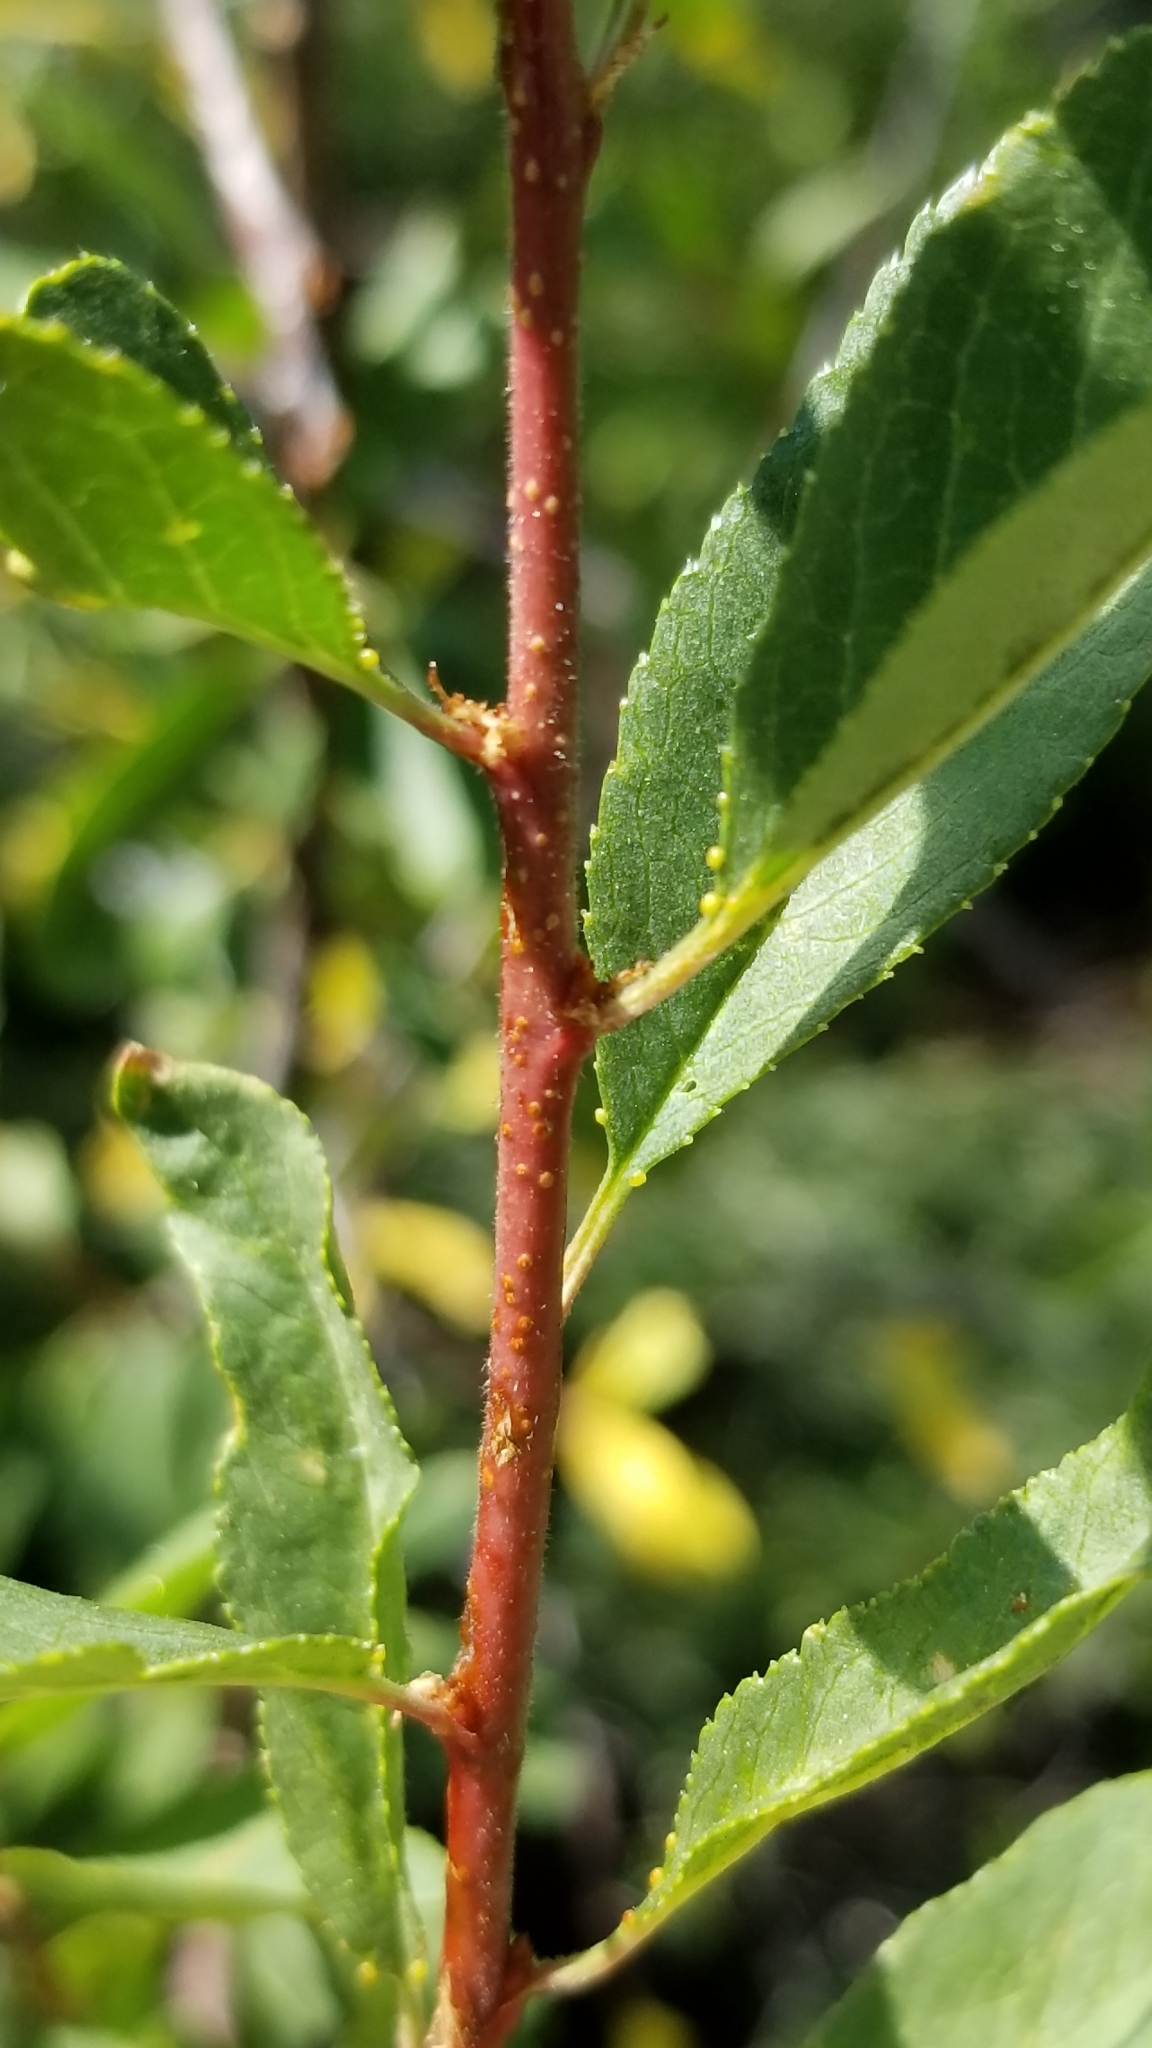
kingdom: Plantae
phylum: Tracheophyta
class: Magnoliopsida
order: Rosales
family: Rosaceae
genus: Prunus
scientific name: Prunus emarginata
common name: Bitter cherry
